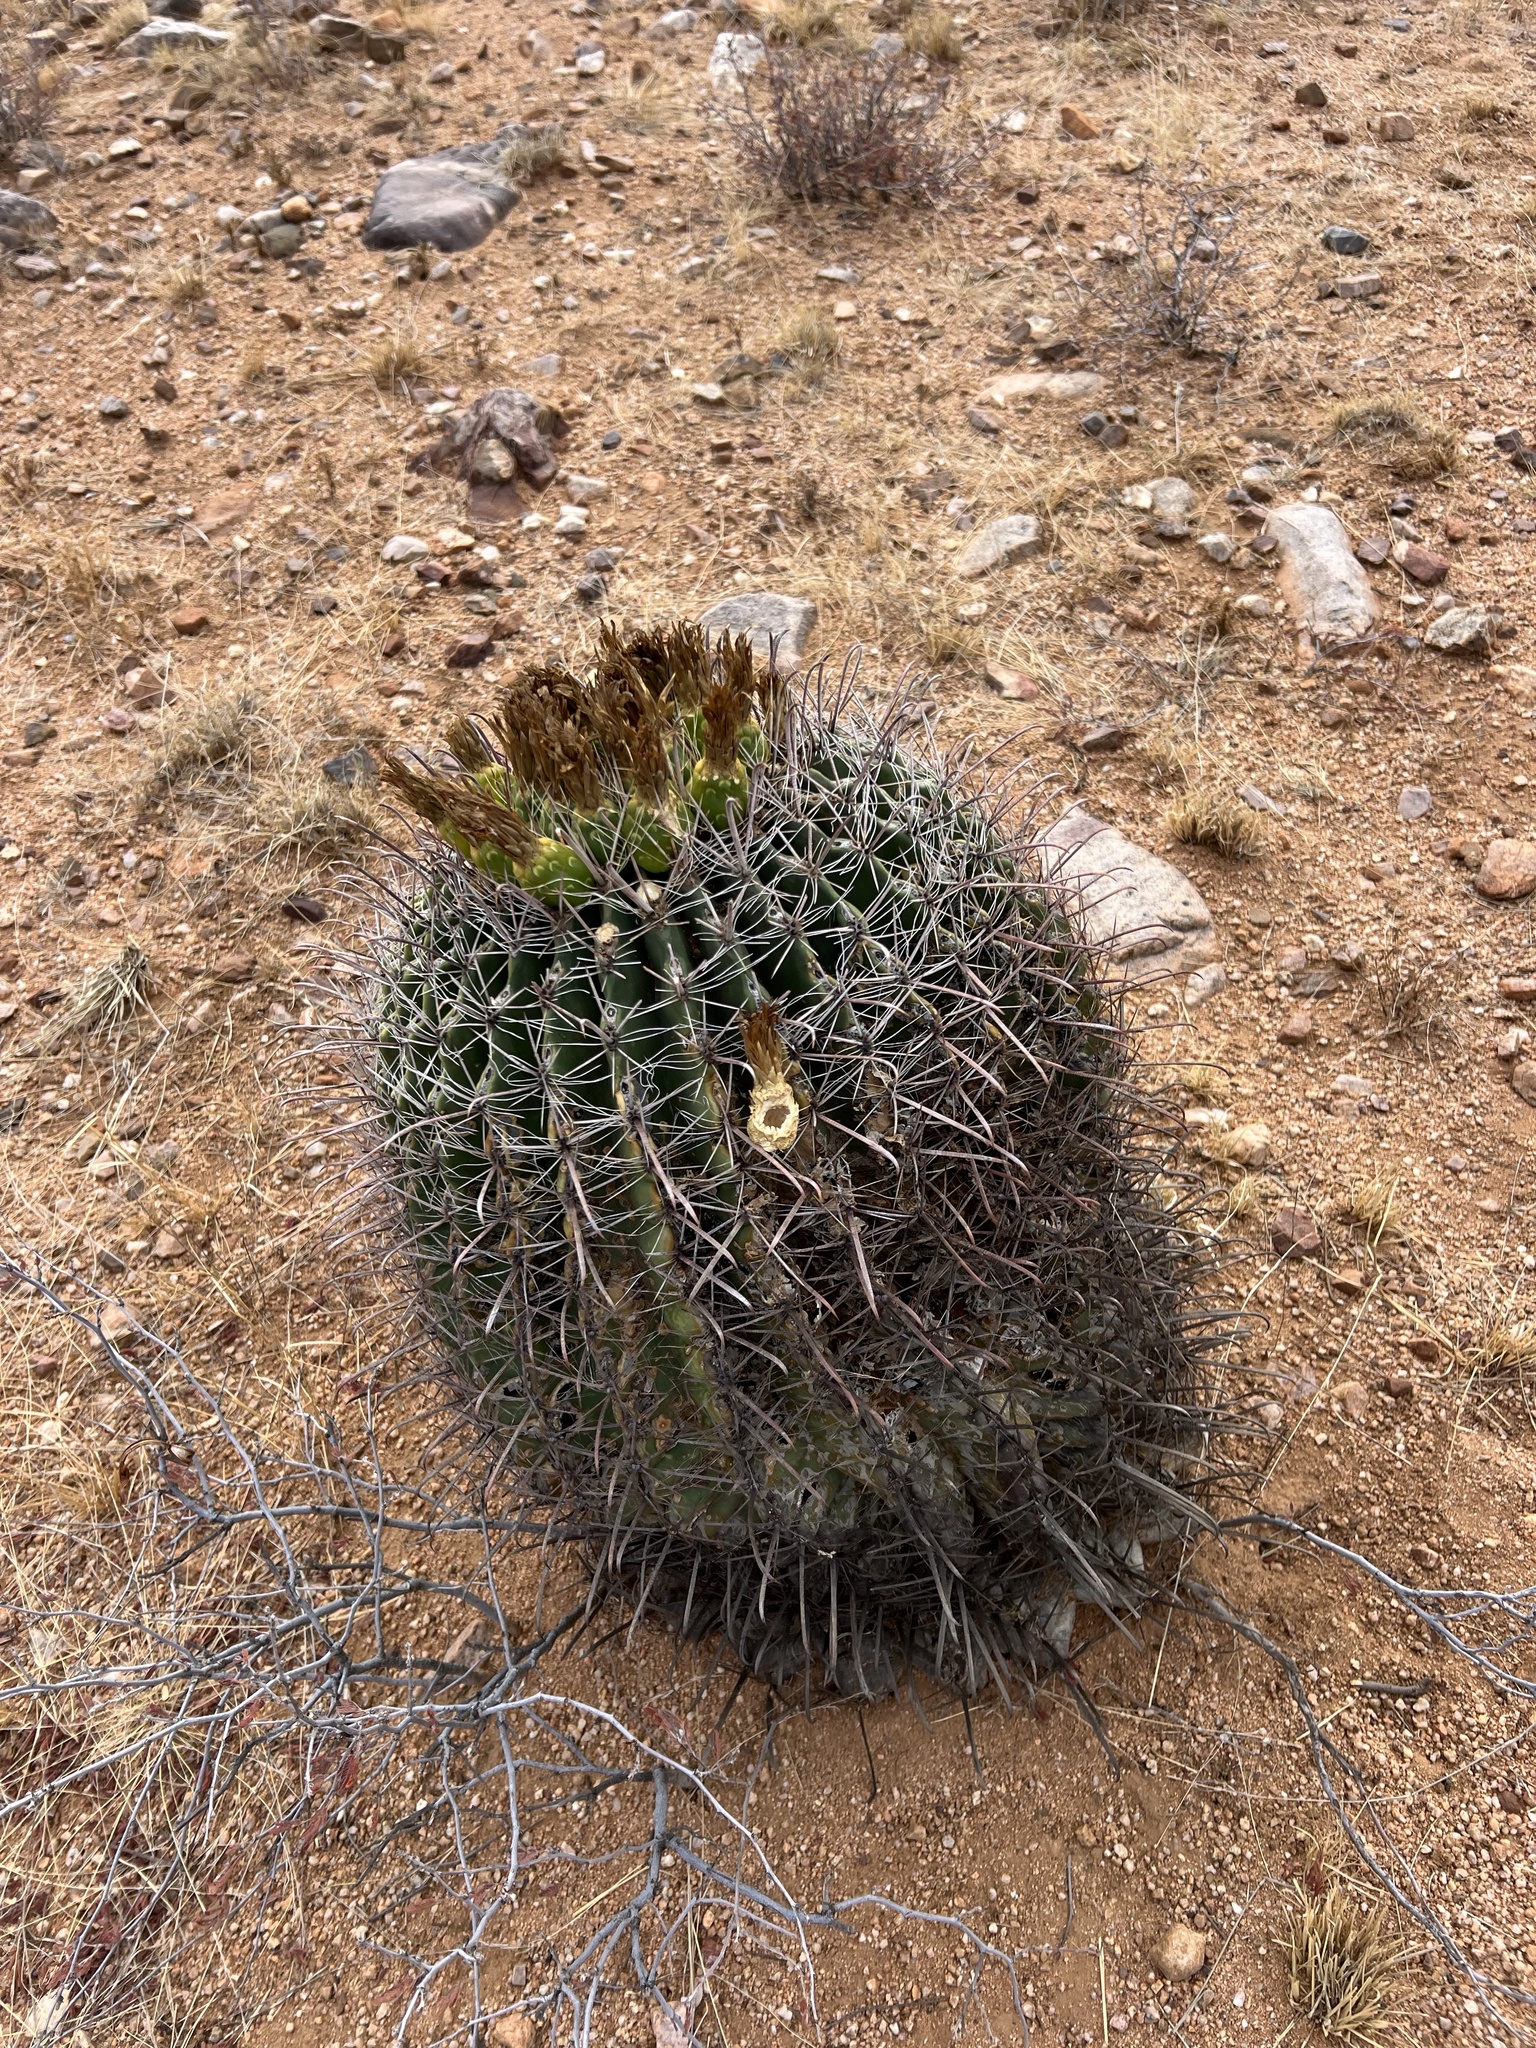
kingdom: Plantae
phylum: Tracheophyta
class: Magnoliopsida
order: Caryophyllales
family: Cactaceae
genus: Ferocactus
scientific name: Ferocactus wislizeni
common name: Candy barrel cactus
